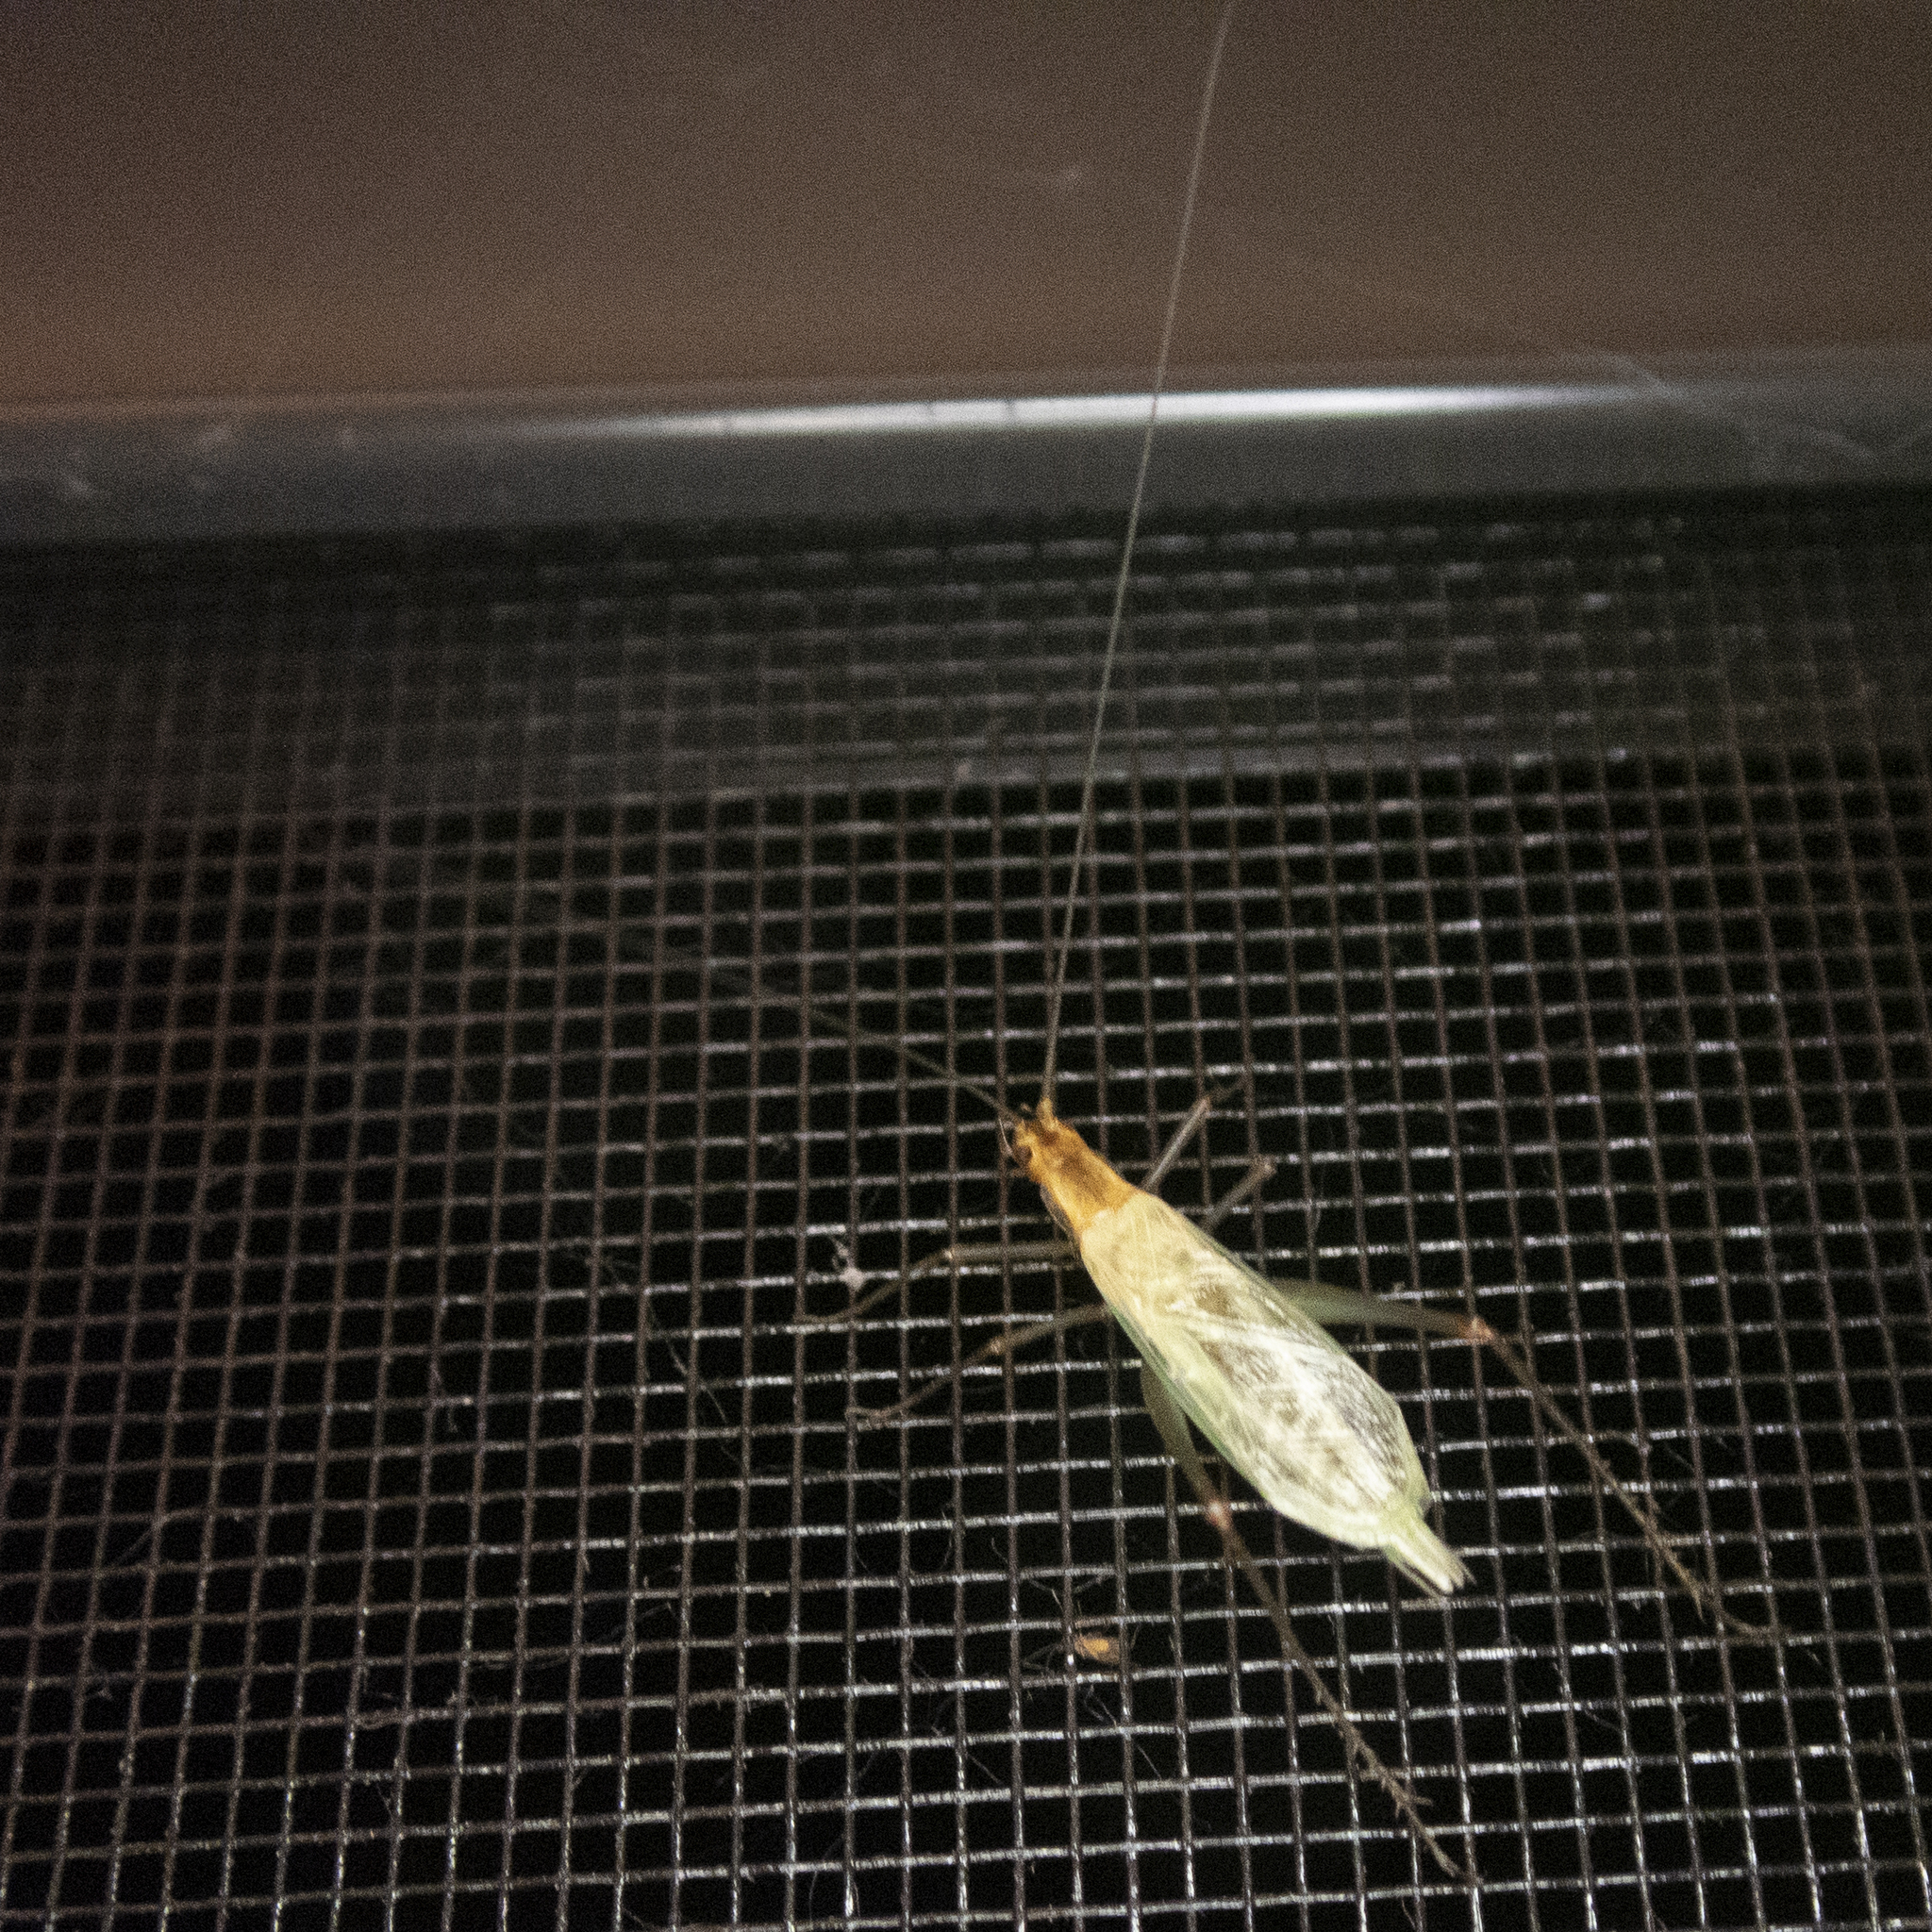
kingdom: Animalia
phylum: Arthropoda
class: Insecta
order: Orthoptera
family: Gryllidae
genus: Oecanthus
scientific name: Oecanthus pini
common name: Pine tree cricket
